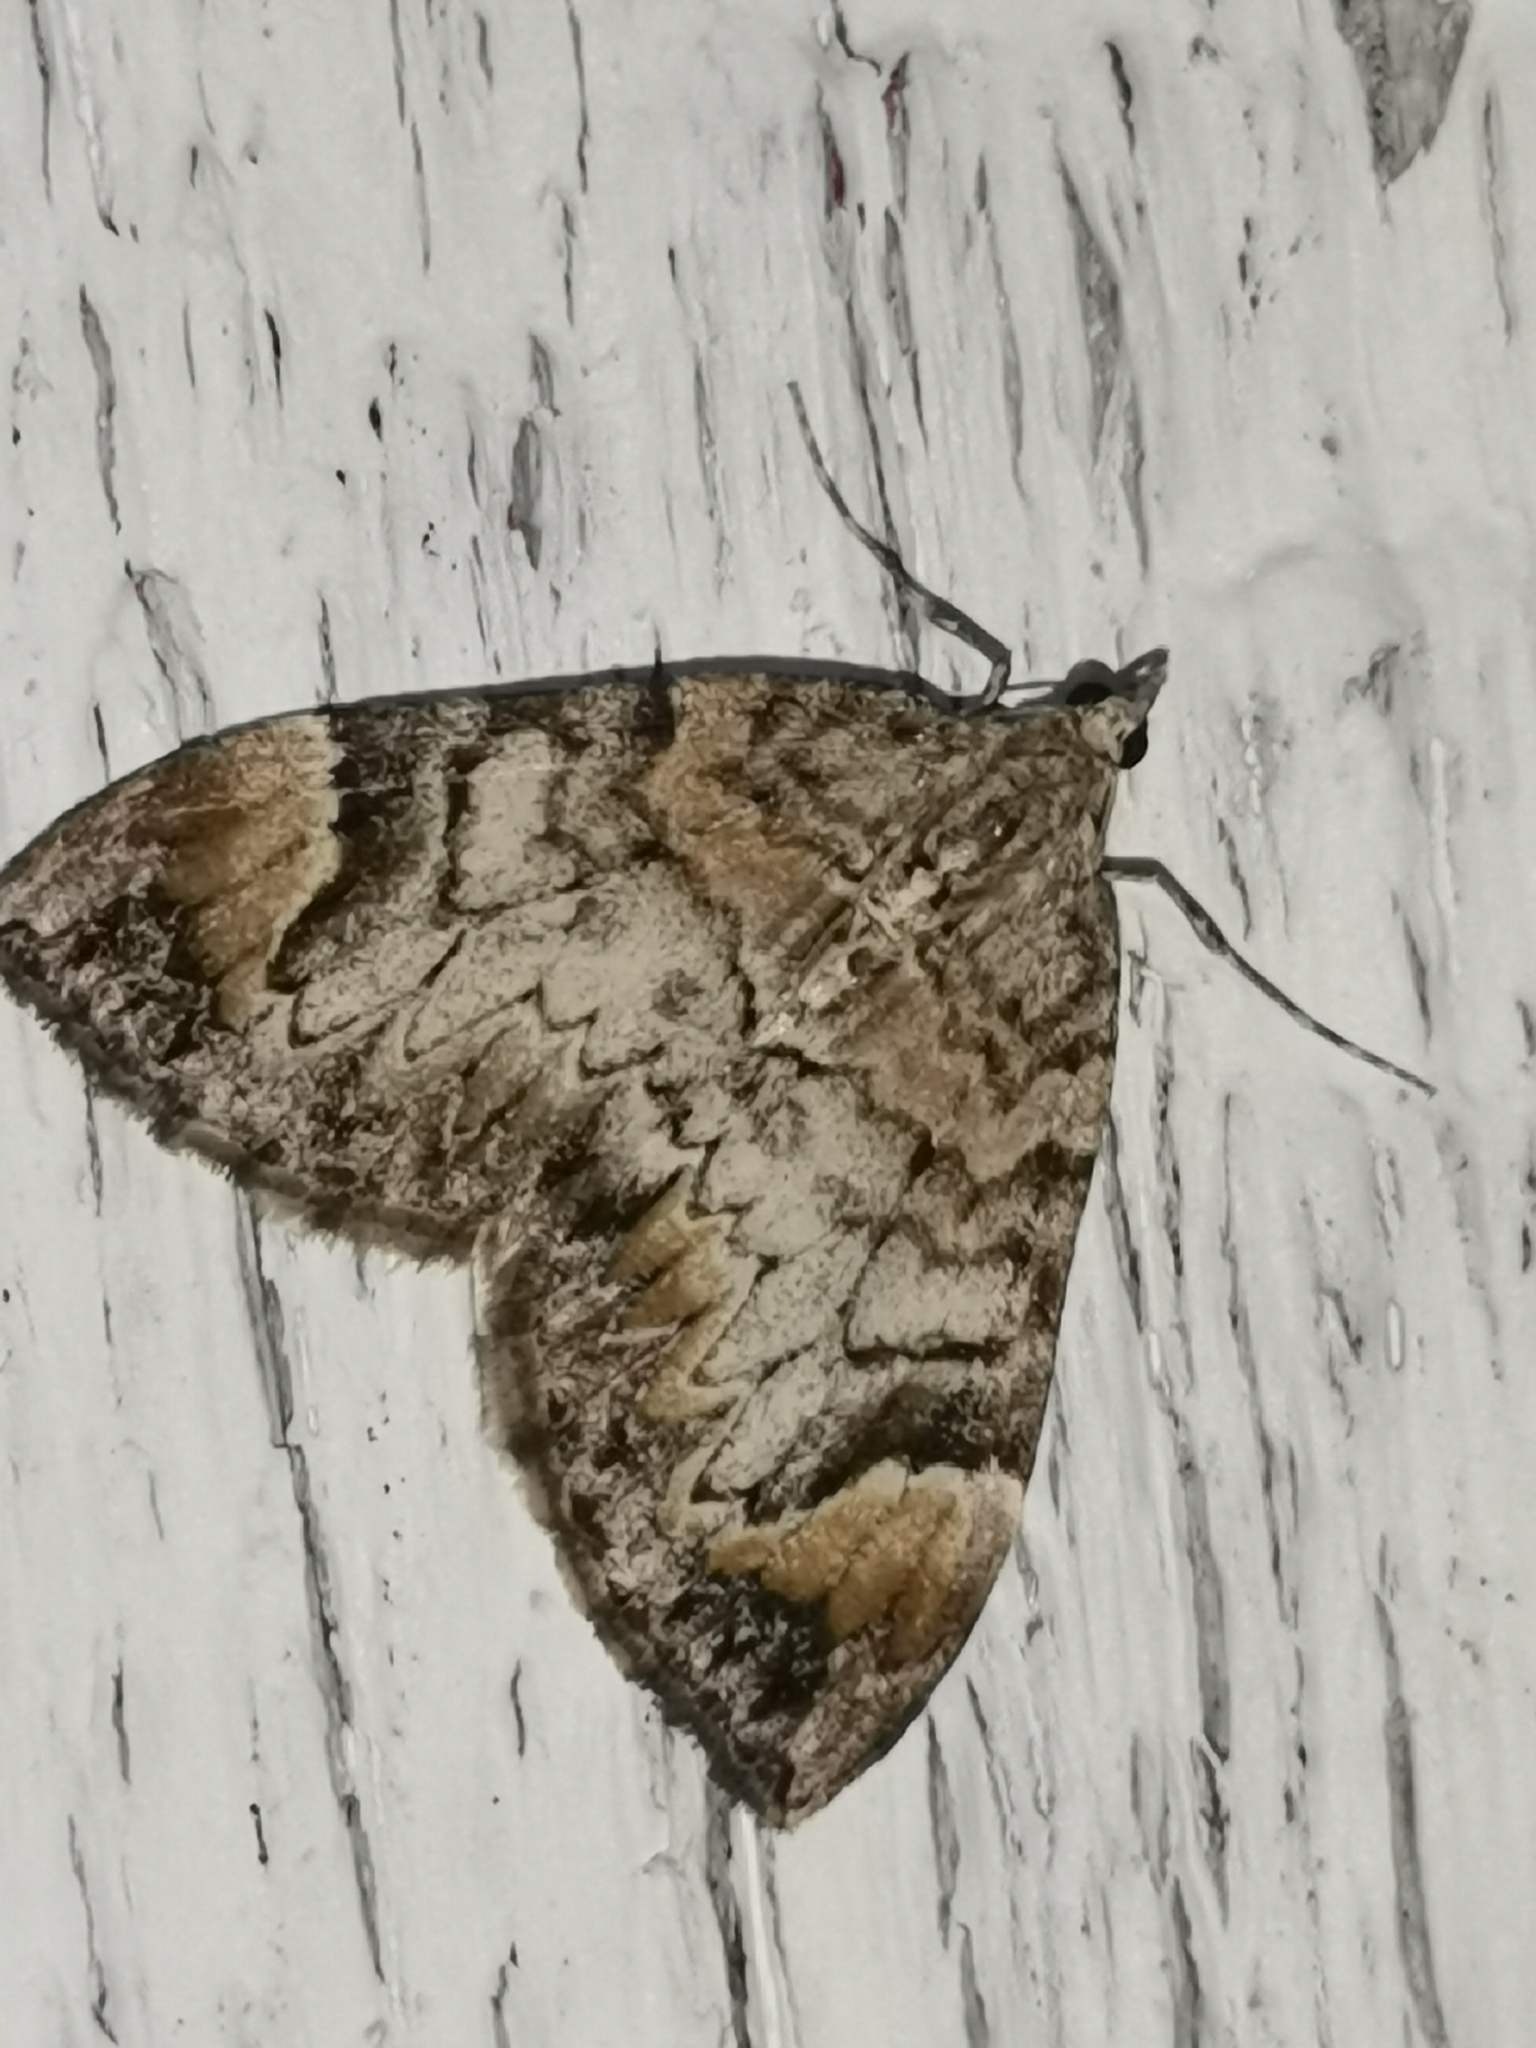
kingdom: Animalia
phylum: Arthropoda
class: Insecta
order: Lepidoptera
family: Geometridae
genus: Dysstroma
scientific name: Dysstroma citrata
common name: Dark marbled carpet
